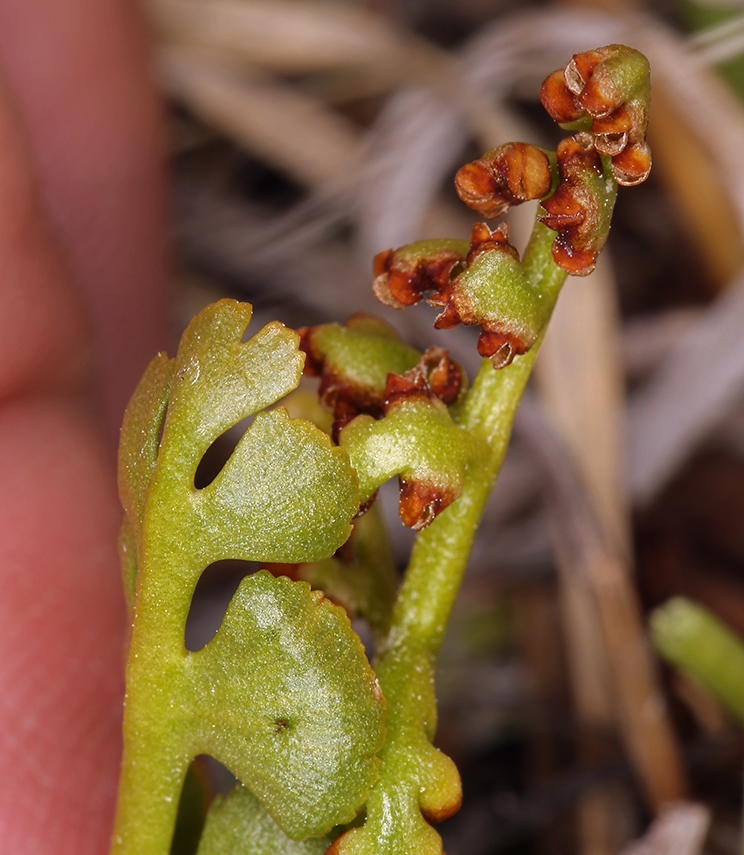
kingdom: Plantae
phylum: Tracheophyta
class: Polypodiopsida
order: Ophioglossales
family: Ophioglossaceae
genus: Botrychium
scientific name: Botrychium crenulatum
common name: Crenulate moonwort
